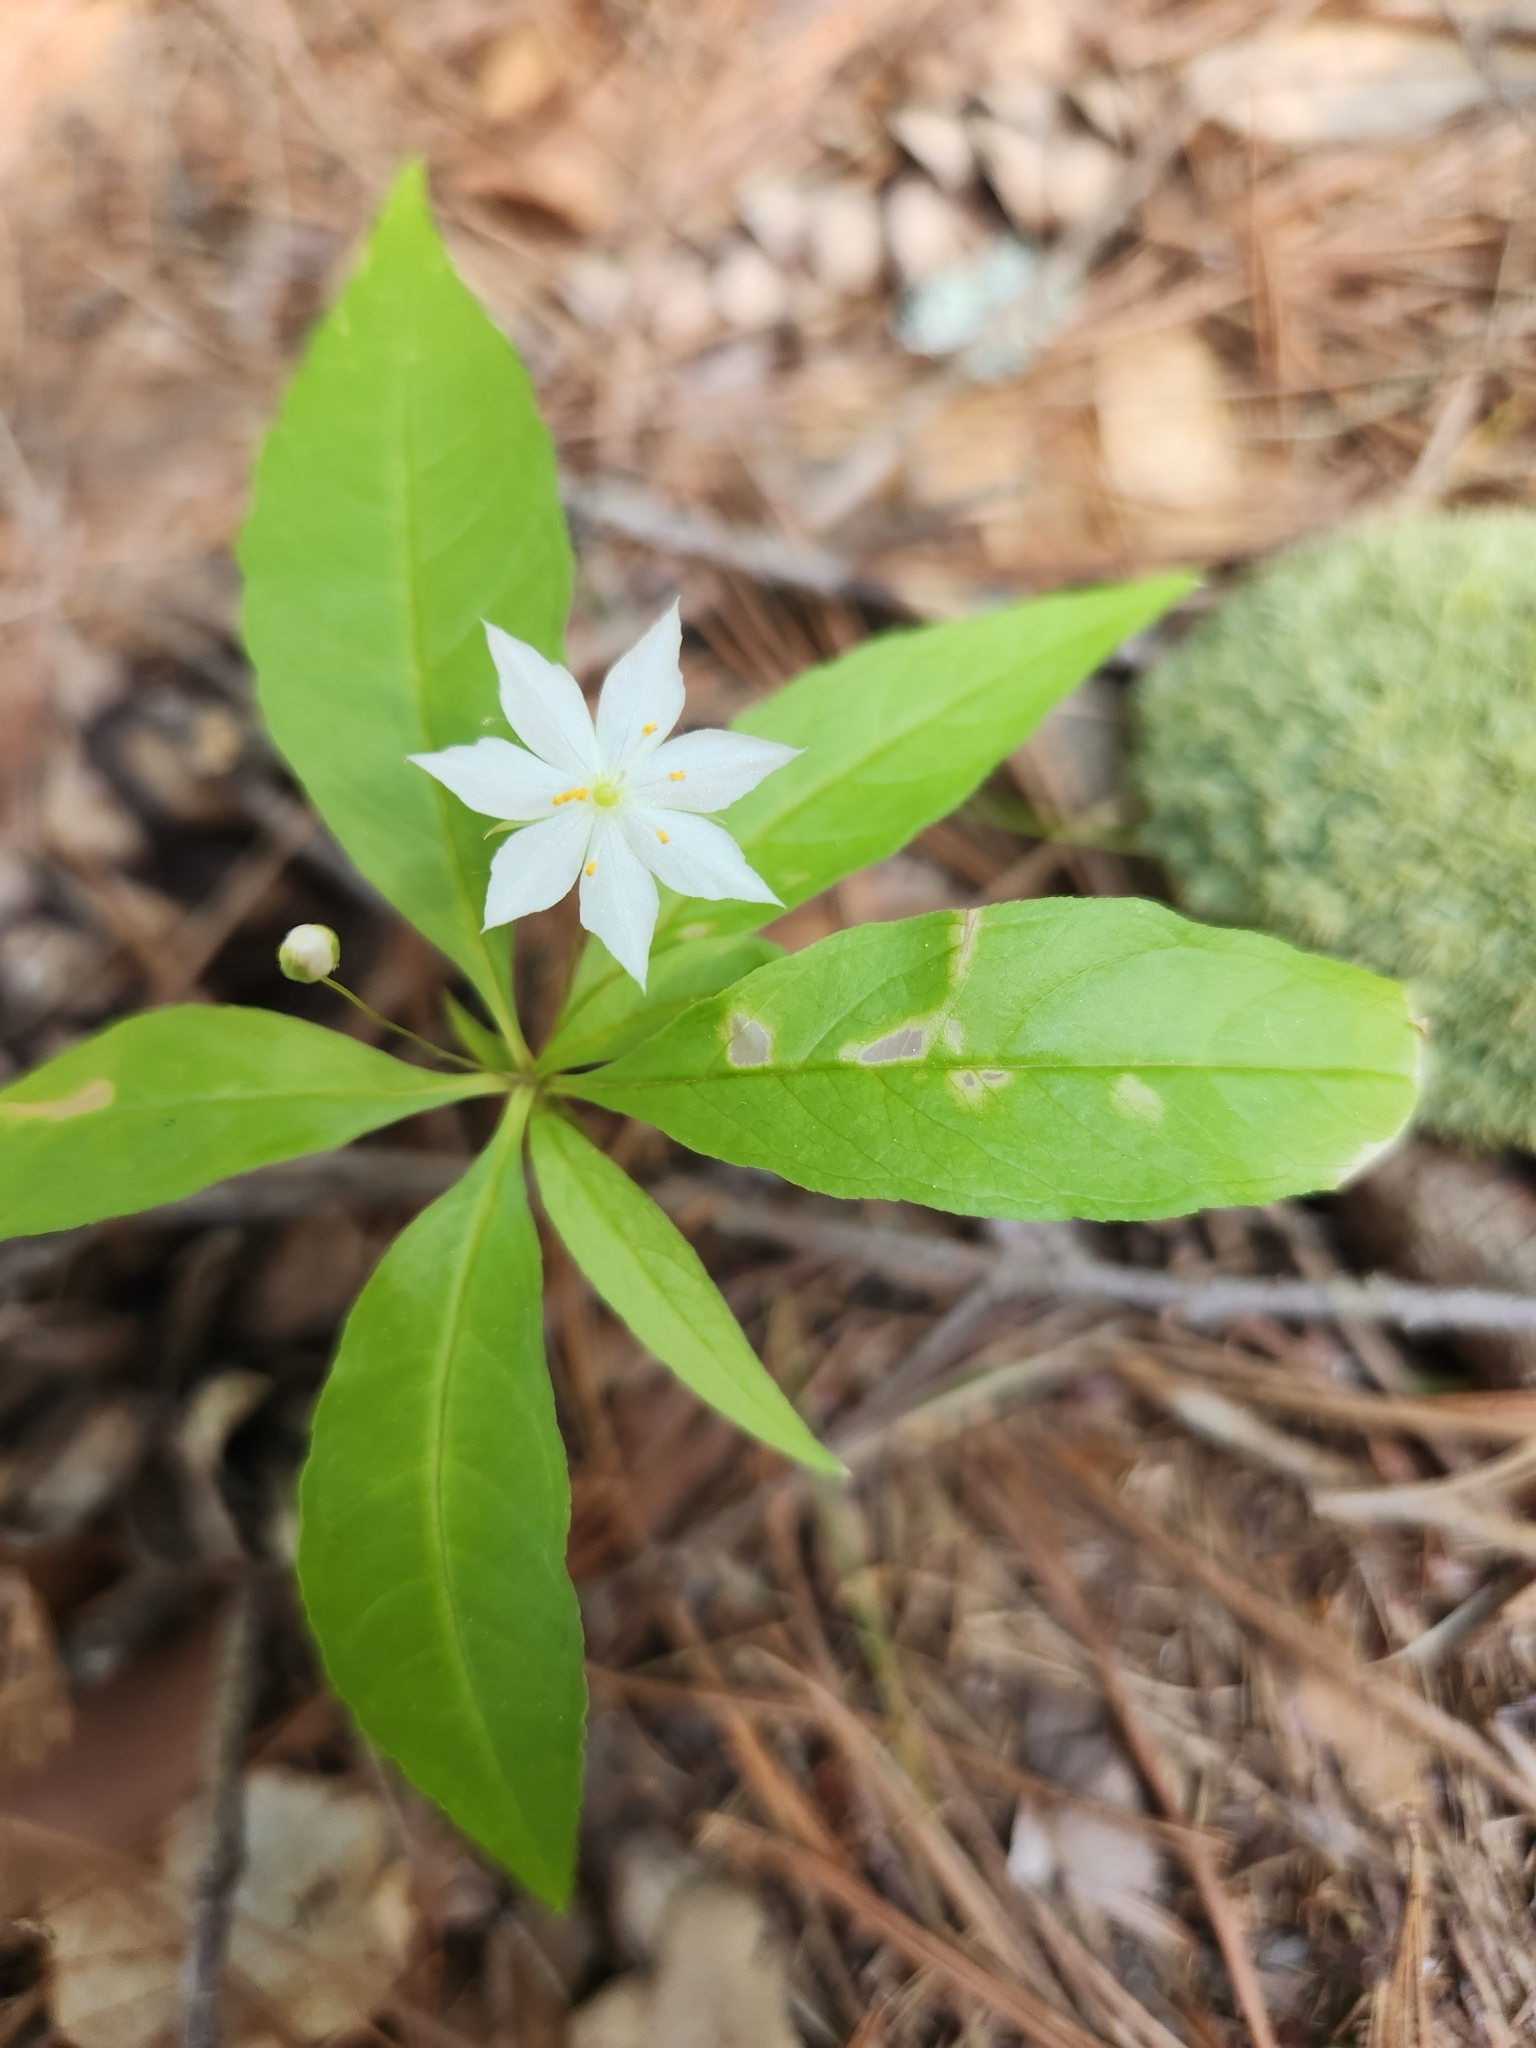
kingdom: Plantae
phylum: Tracheophyta
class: Magnoliopsida
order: Ericales
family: Primulaceae
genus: Lysimachia
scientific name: Lysimachia borealis
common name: American starflower
